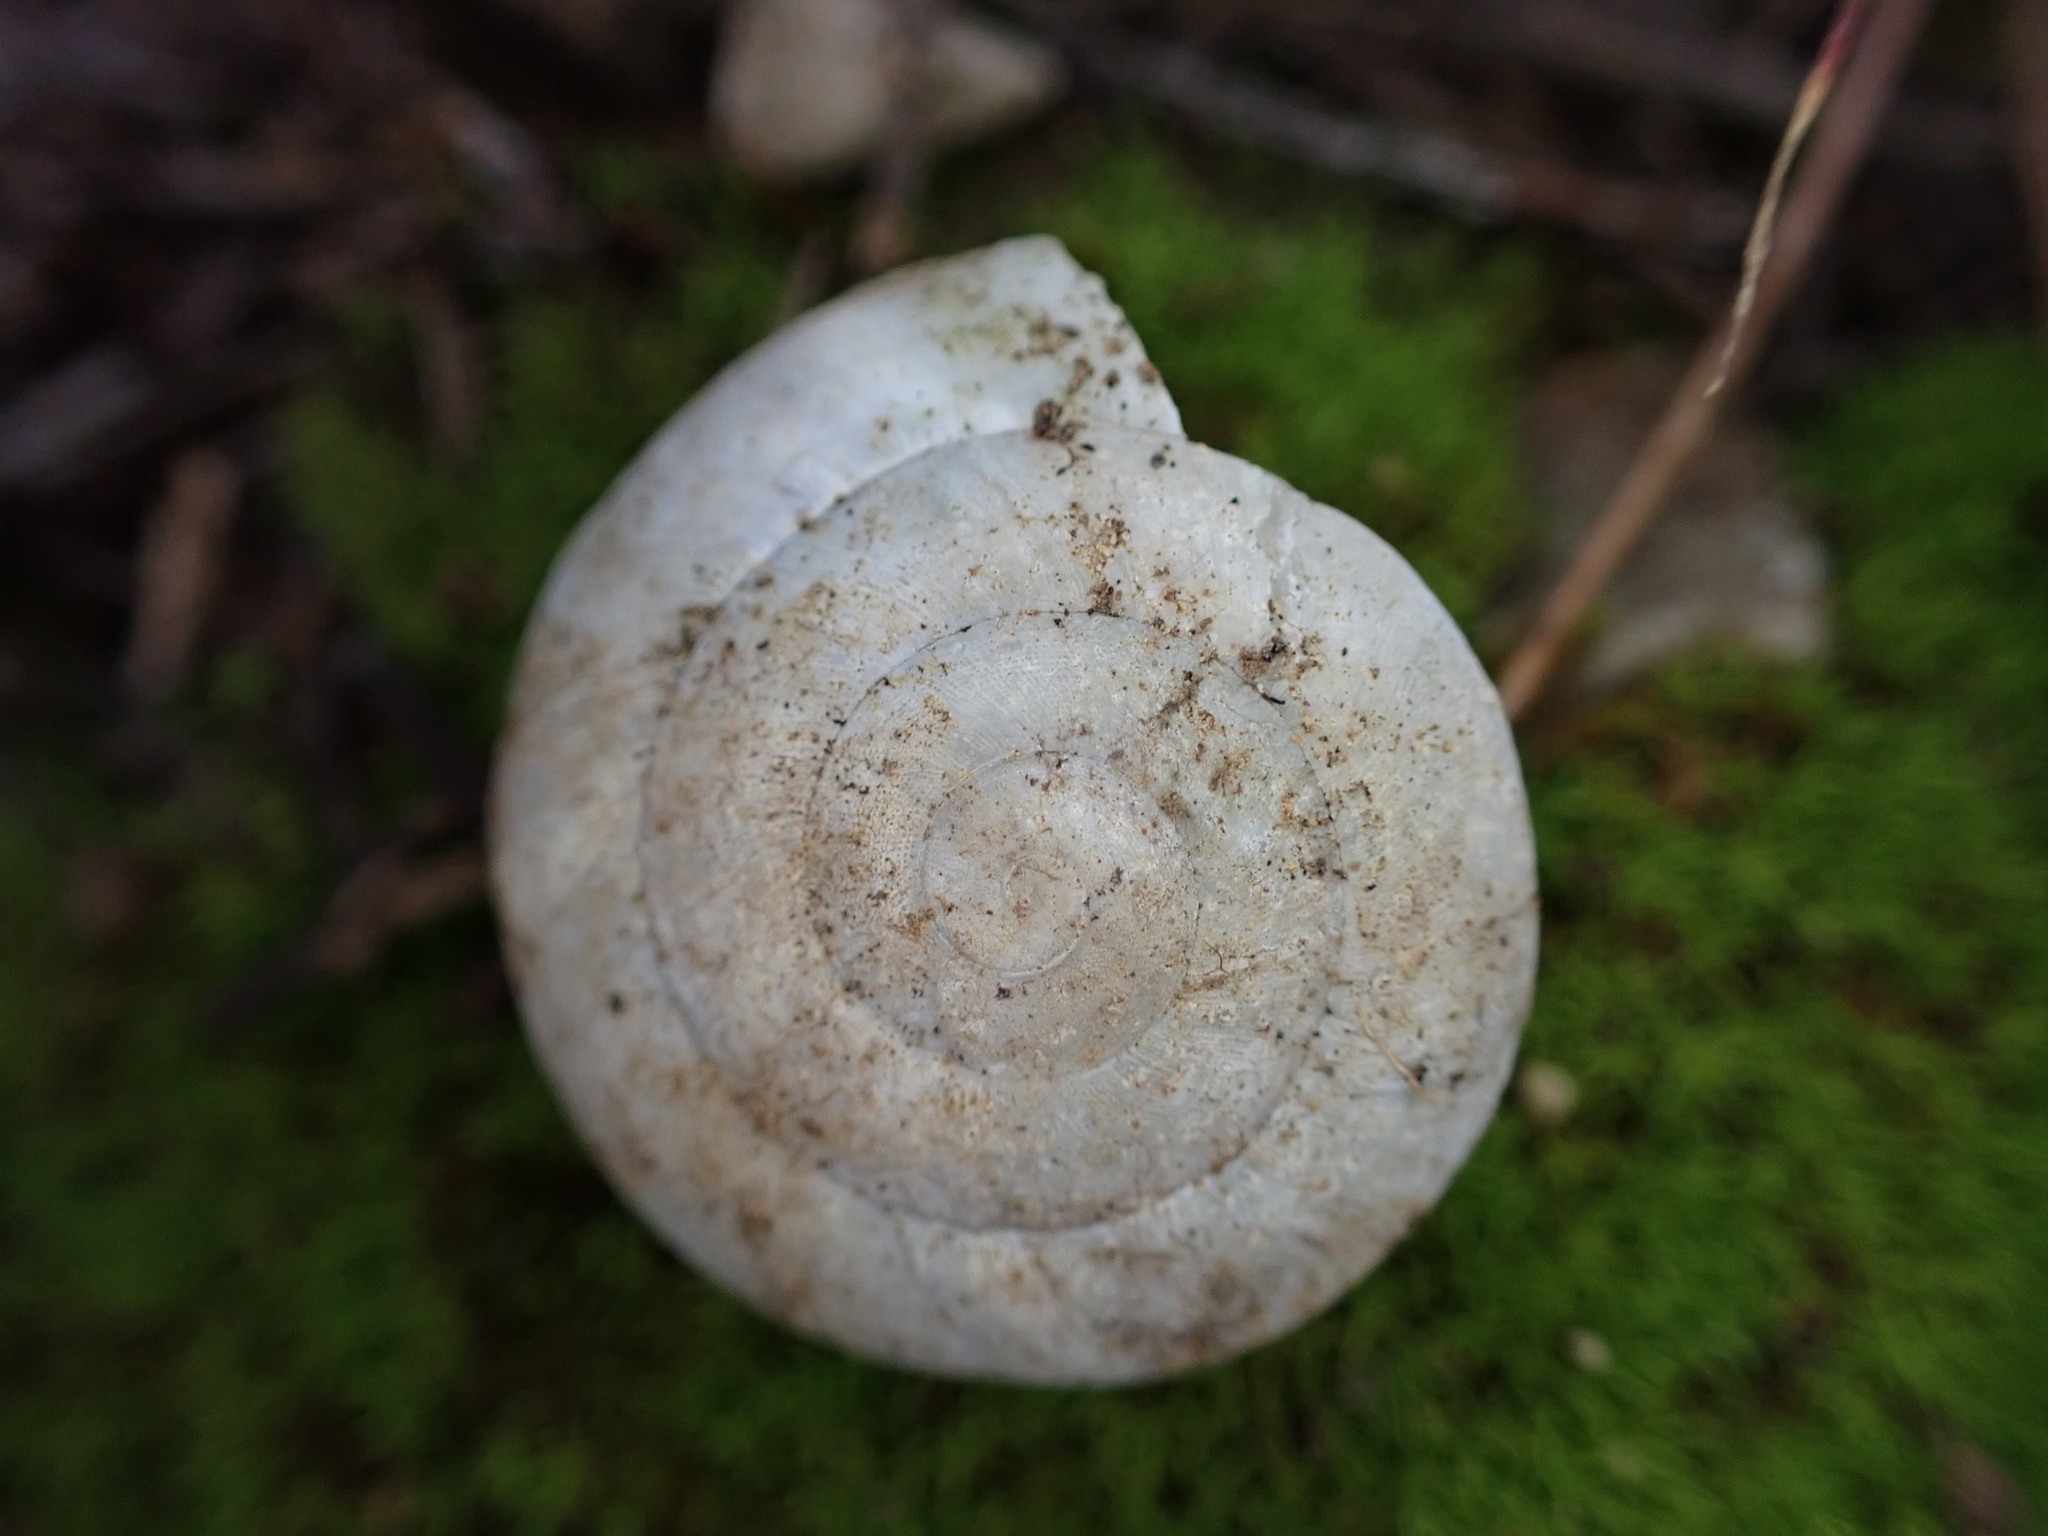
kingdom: Animalia
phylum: Mollusca
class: Gastropoda
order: Stylommatophora
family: Zonitidae
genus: Zonites
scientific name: Zonites algirus
